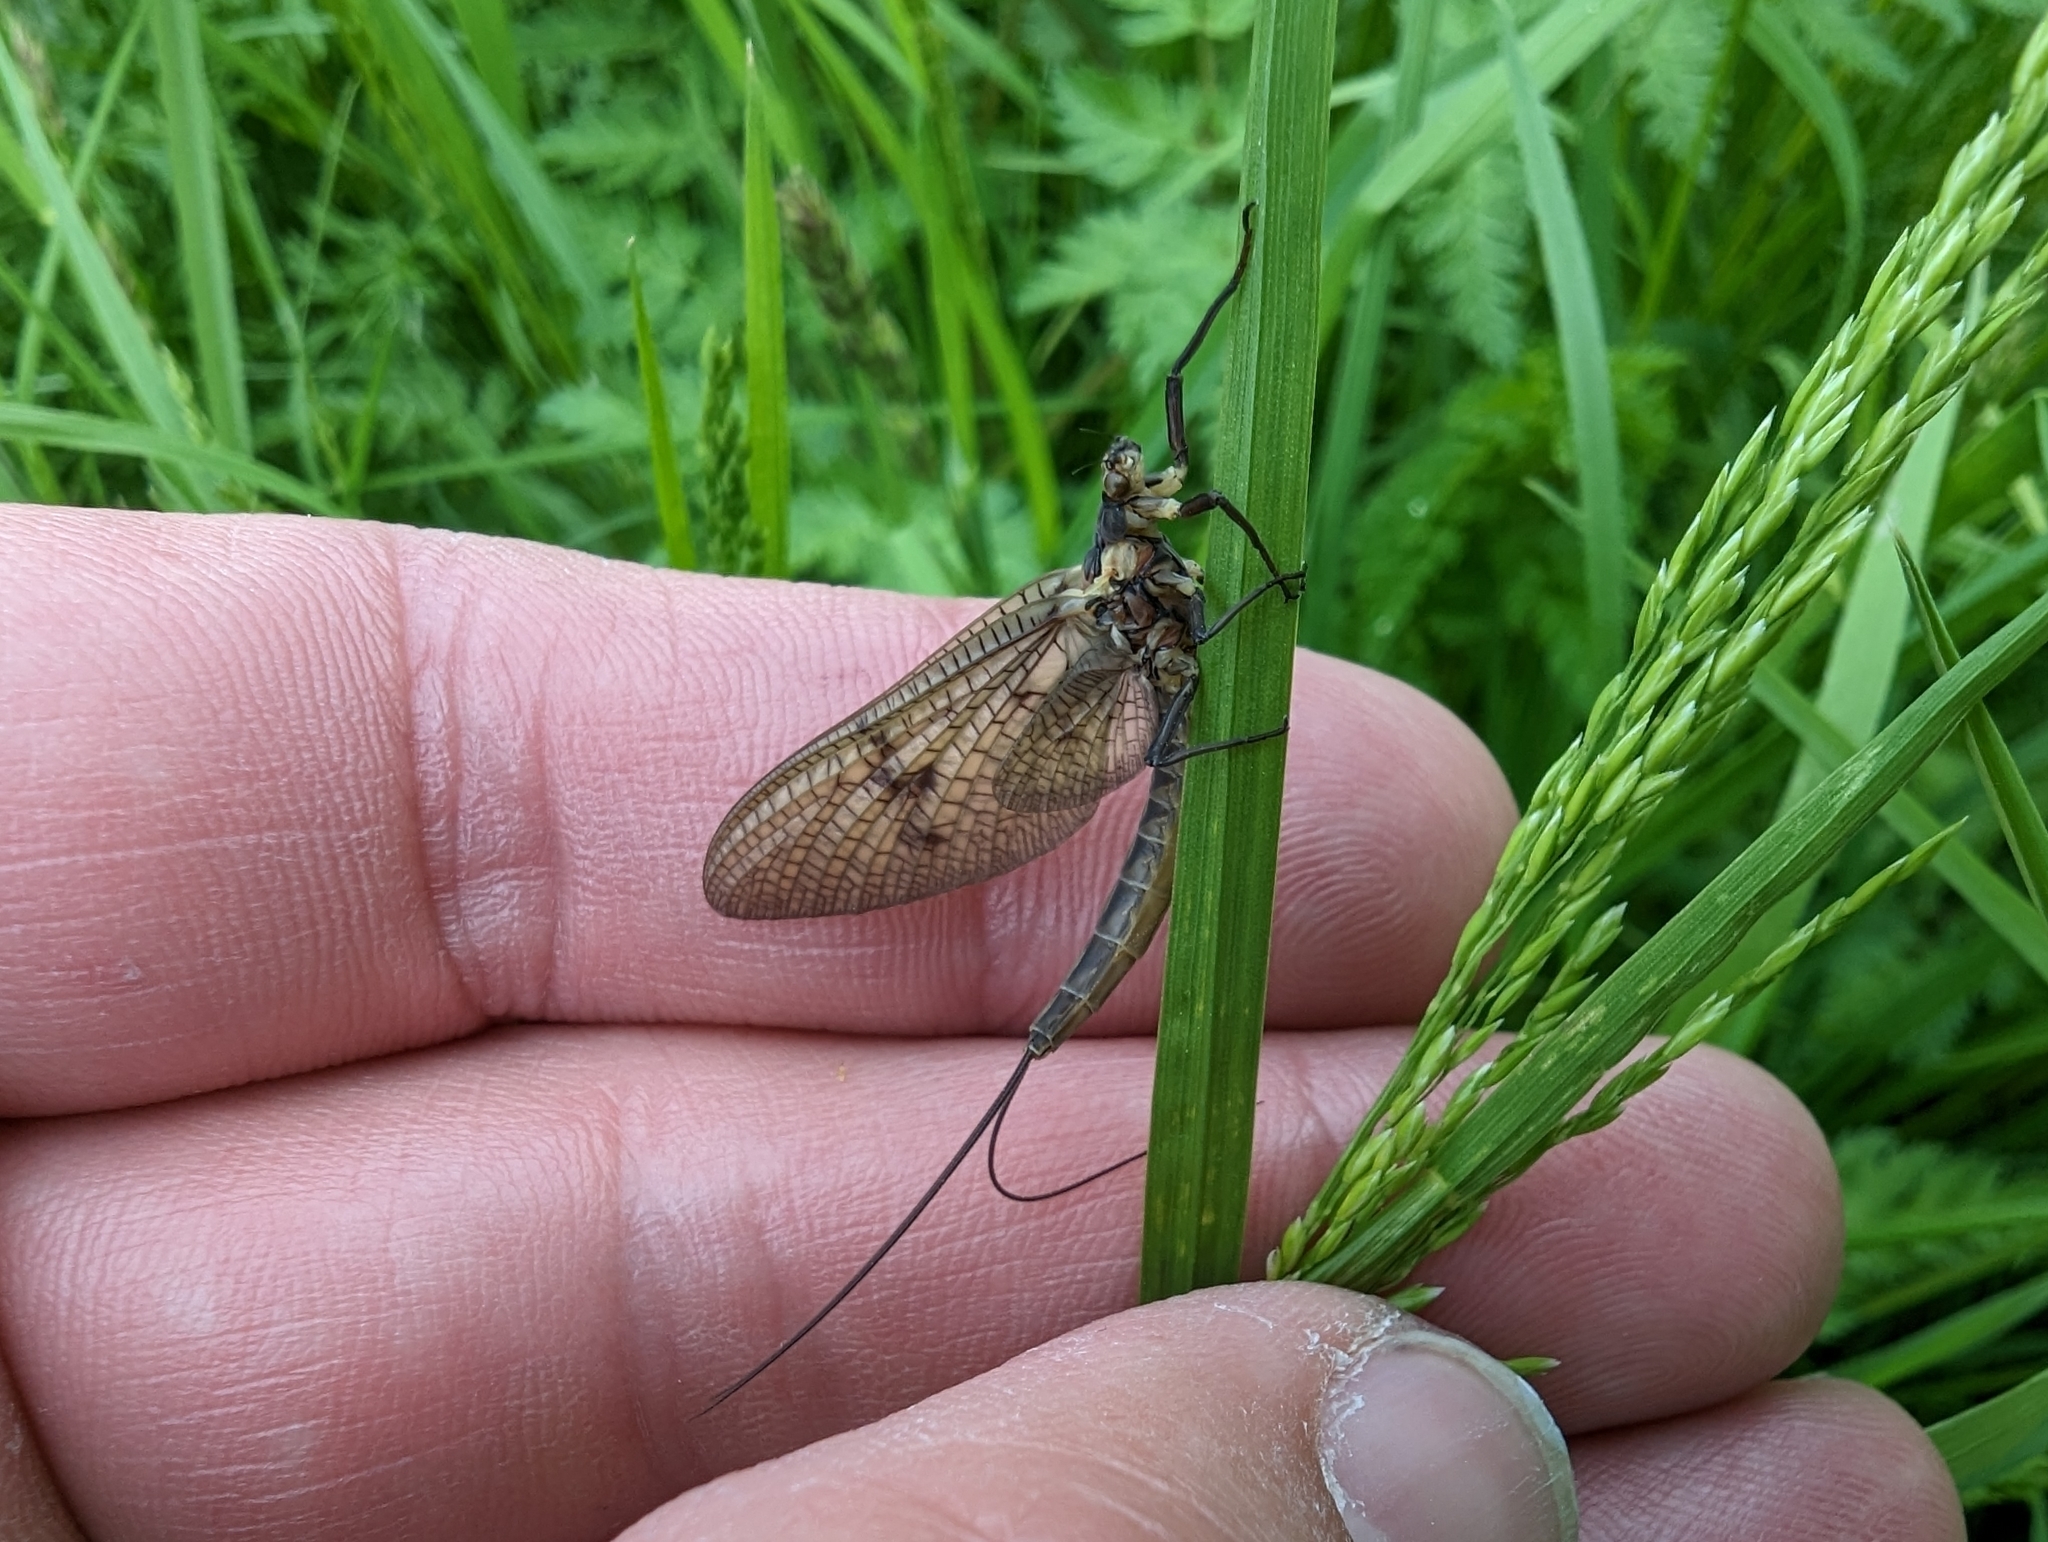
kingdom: Animalia
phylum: Arthropoda
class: Insecta
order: Ephemeroptera
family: Ephemeridae
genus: Ephemera
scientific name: Ephemera vulgata
